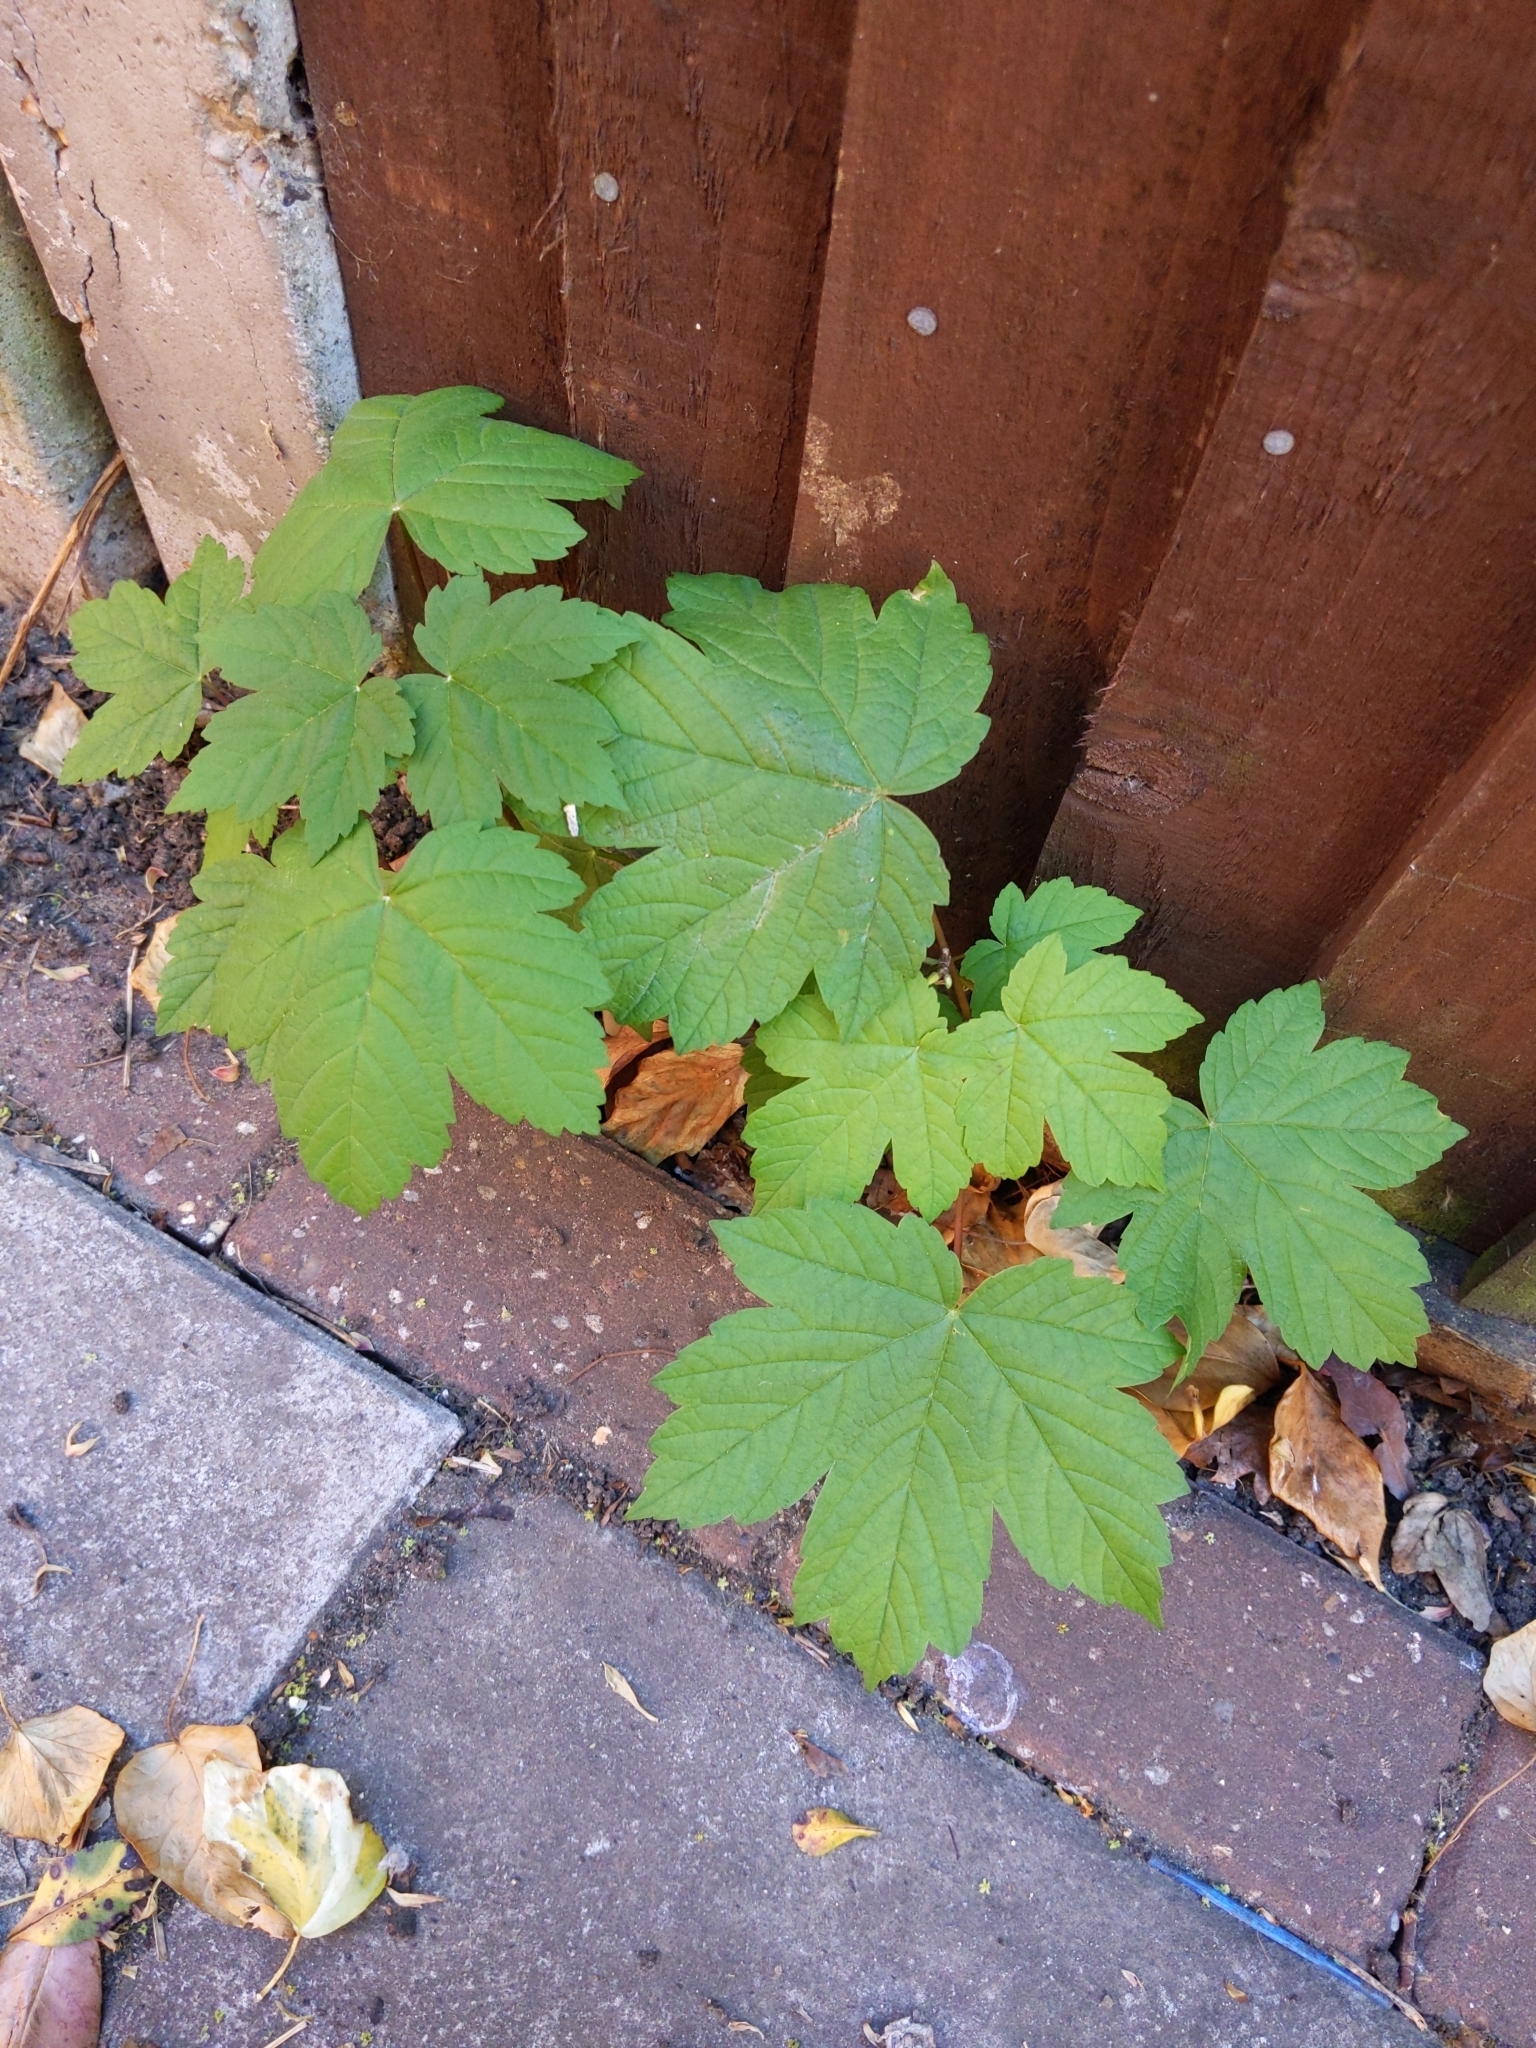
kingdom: Plantae
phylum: Tracheophyta
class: Magnoliopsida
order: Sapindales
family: Sapindaceae
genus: Acer
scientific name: Acer pseudoplatanus
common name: Sycamore
